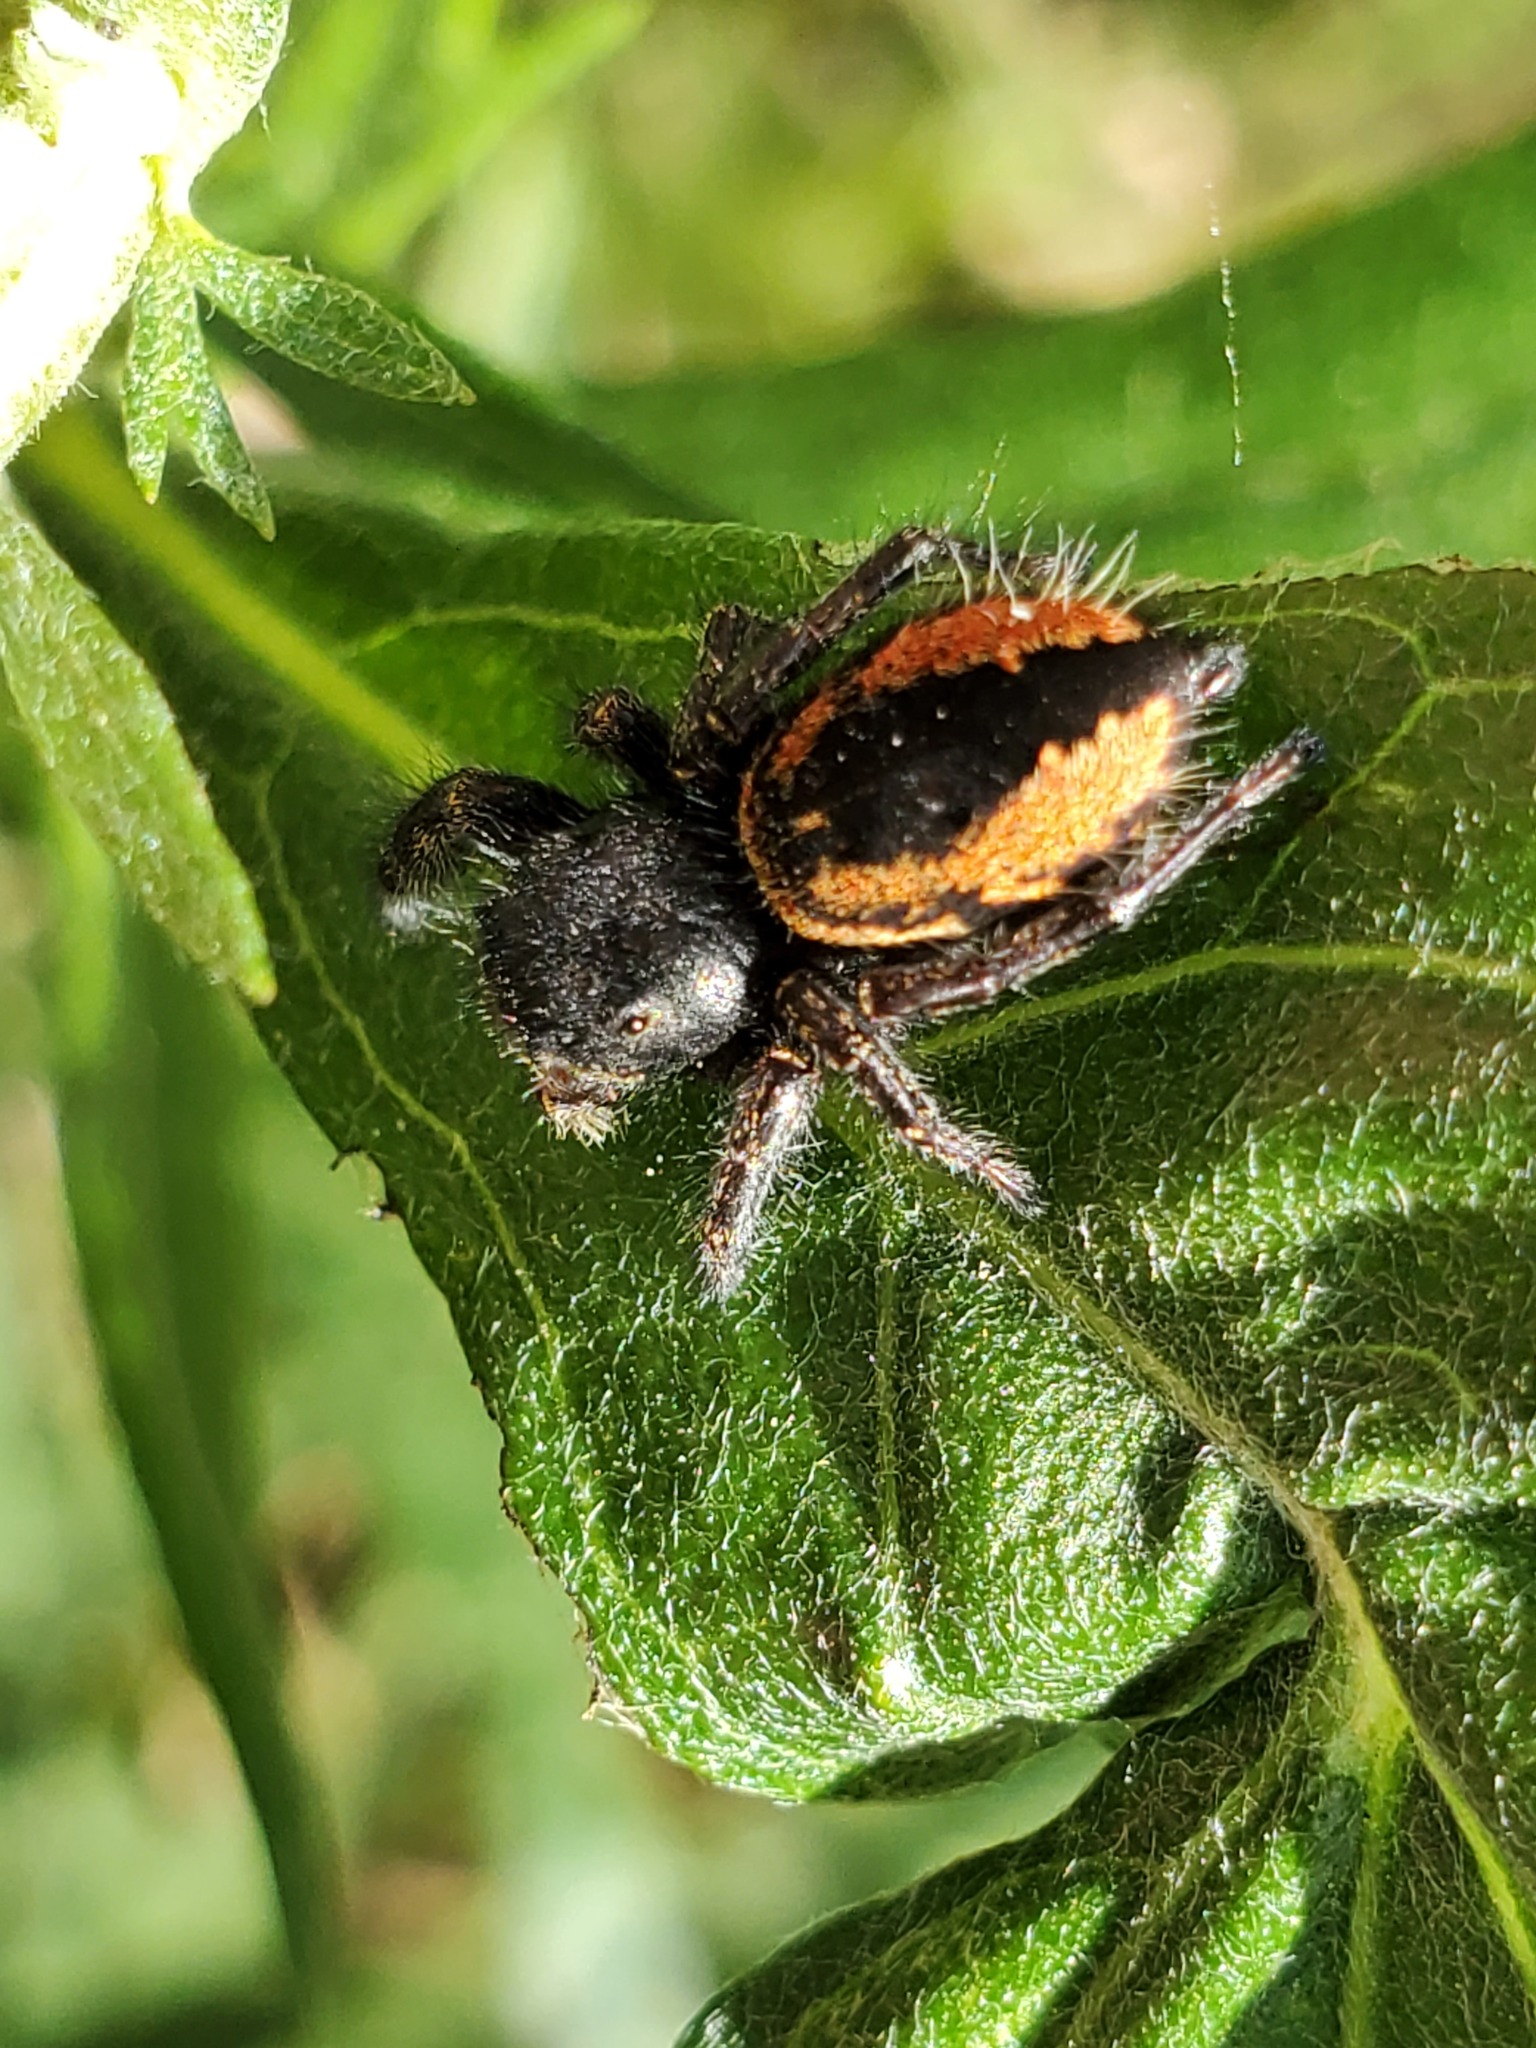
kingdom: Animalia
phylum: Arthropoda
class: Arachnida
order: Araneae
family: Salticidae
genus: Phidippus
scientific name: Phidippus johnsoni
